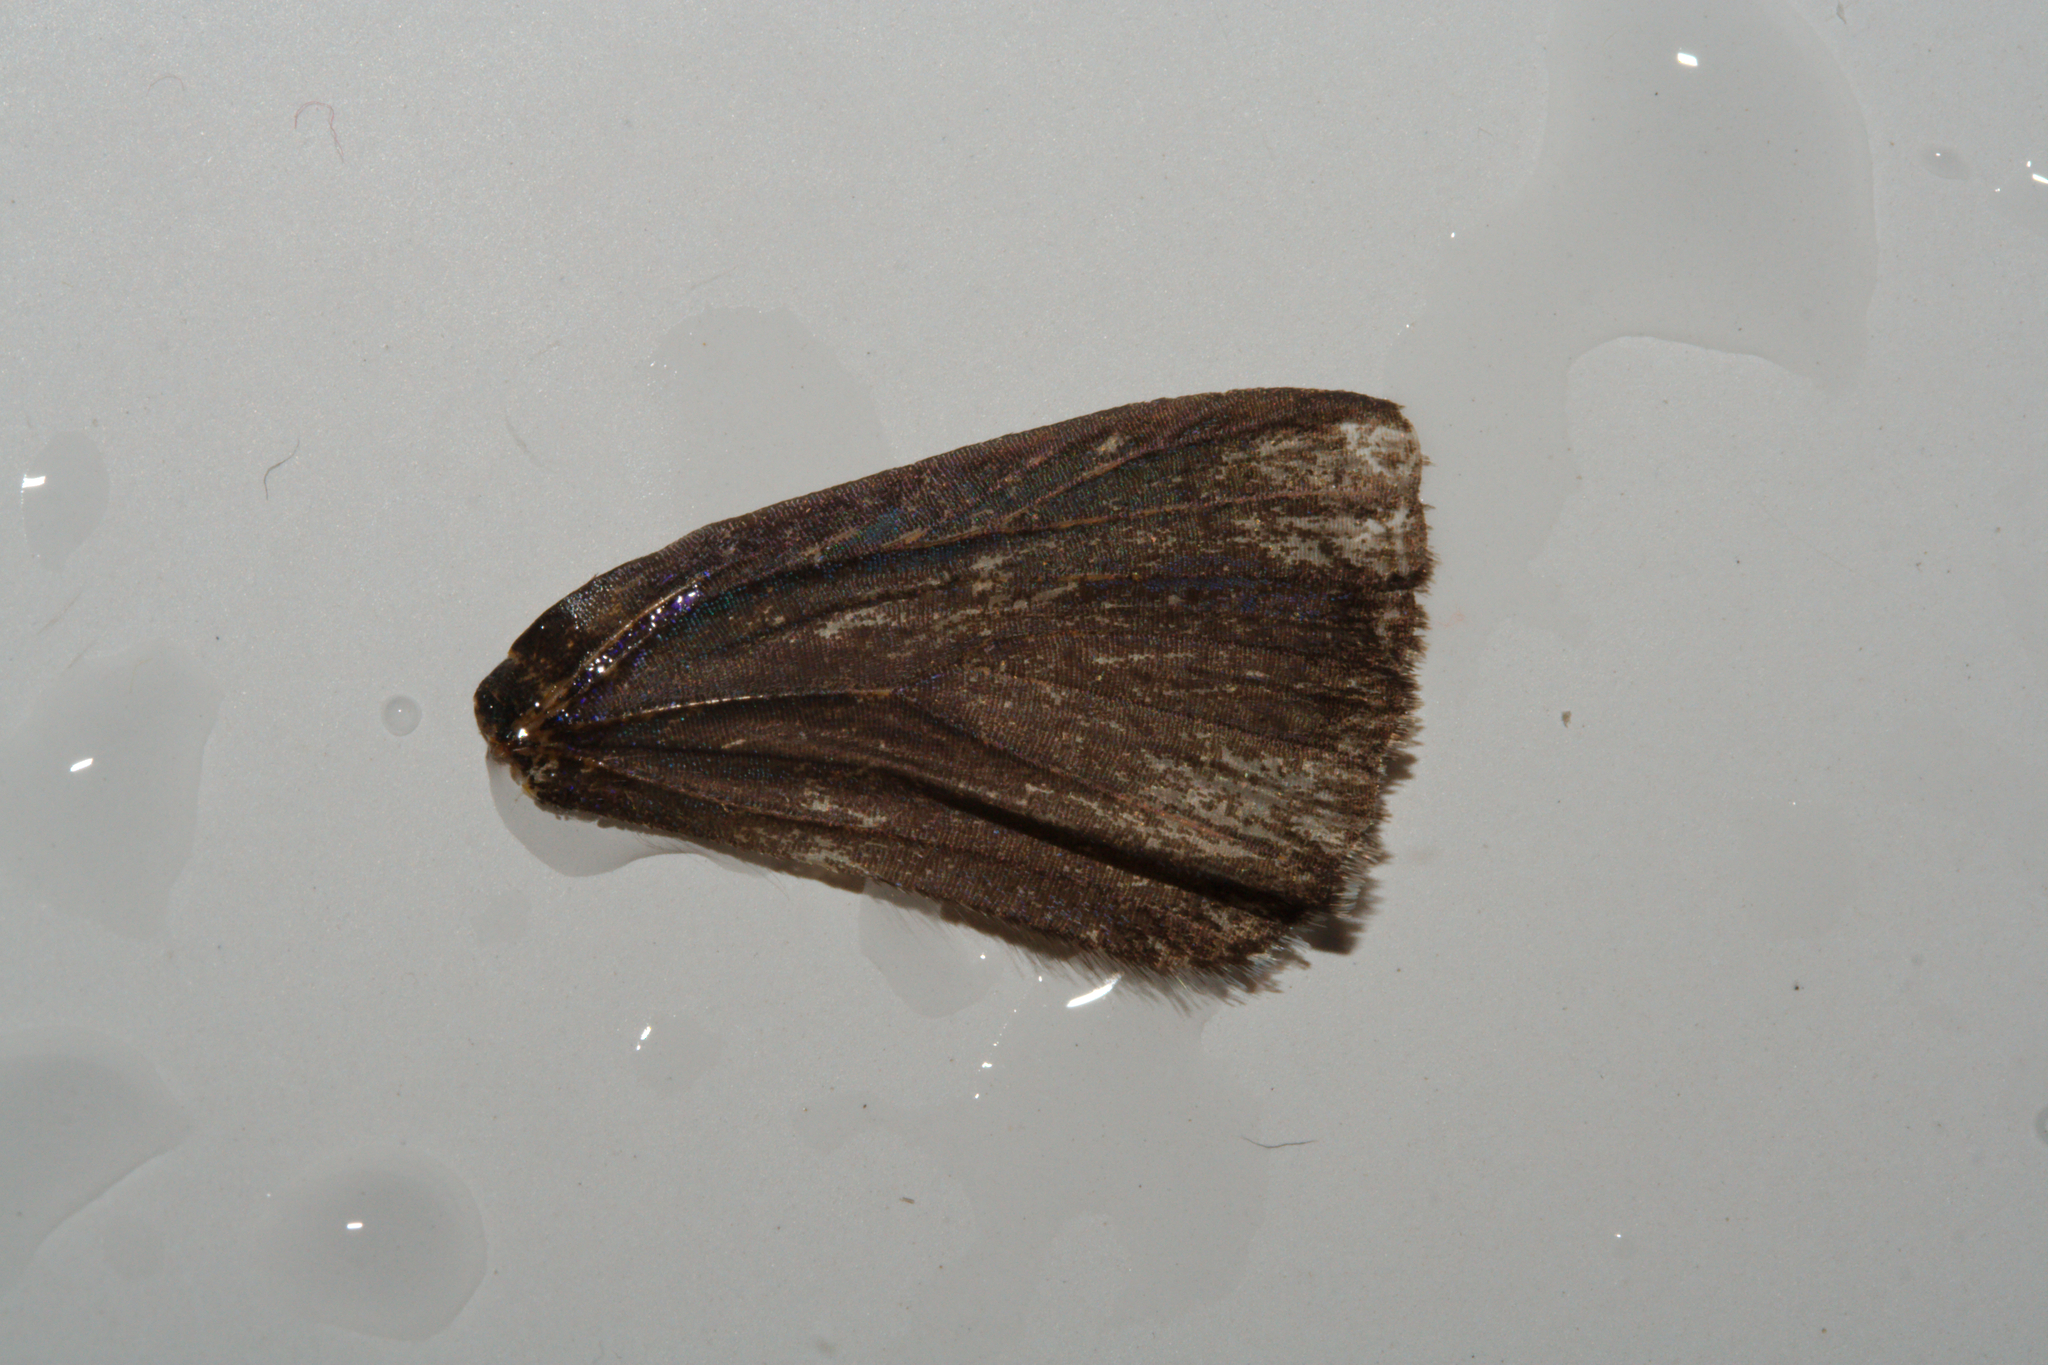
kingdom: Animalia
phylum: Arthropoda
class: Insecta
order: Lepidoptera
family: Lycaenidae
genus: Quercusia
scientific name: Quercusia quercus
